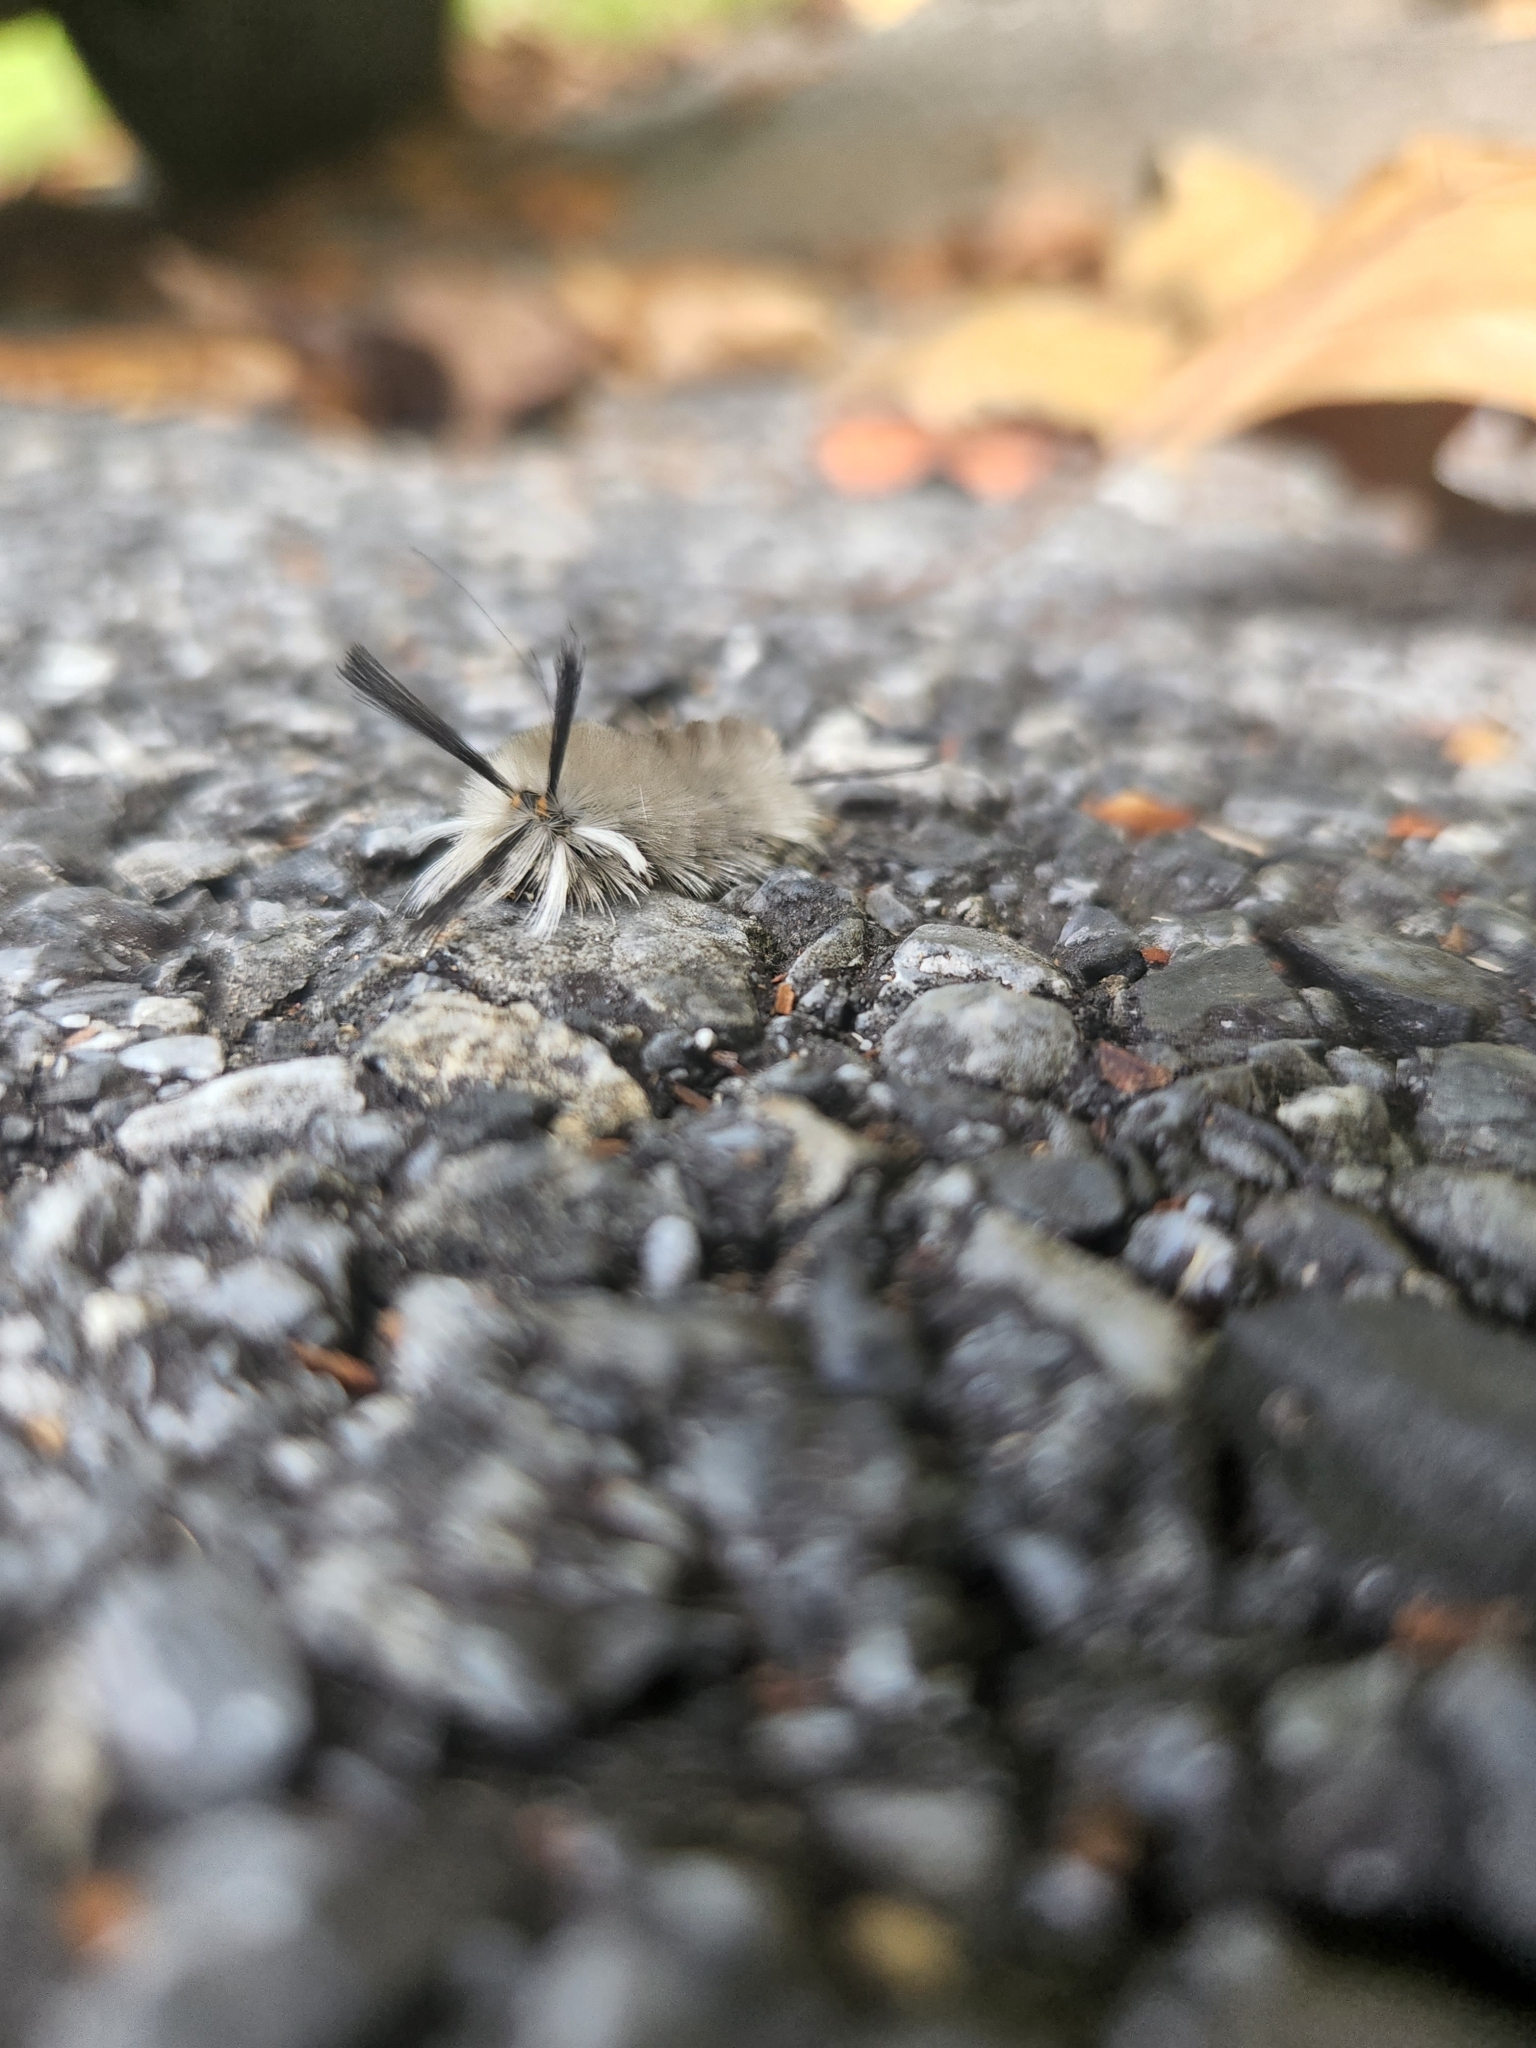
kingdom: Animalia
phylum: Arthropoda
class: Insecta
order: Lepidoptera
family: Erebidae
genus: Halysidota
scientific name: Halysidota tessellaris
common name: Banded tussock moth
